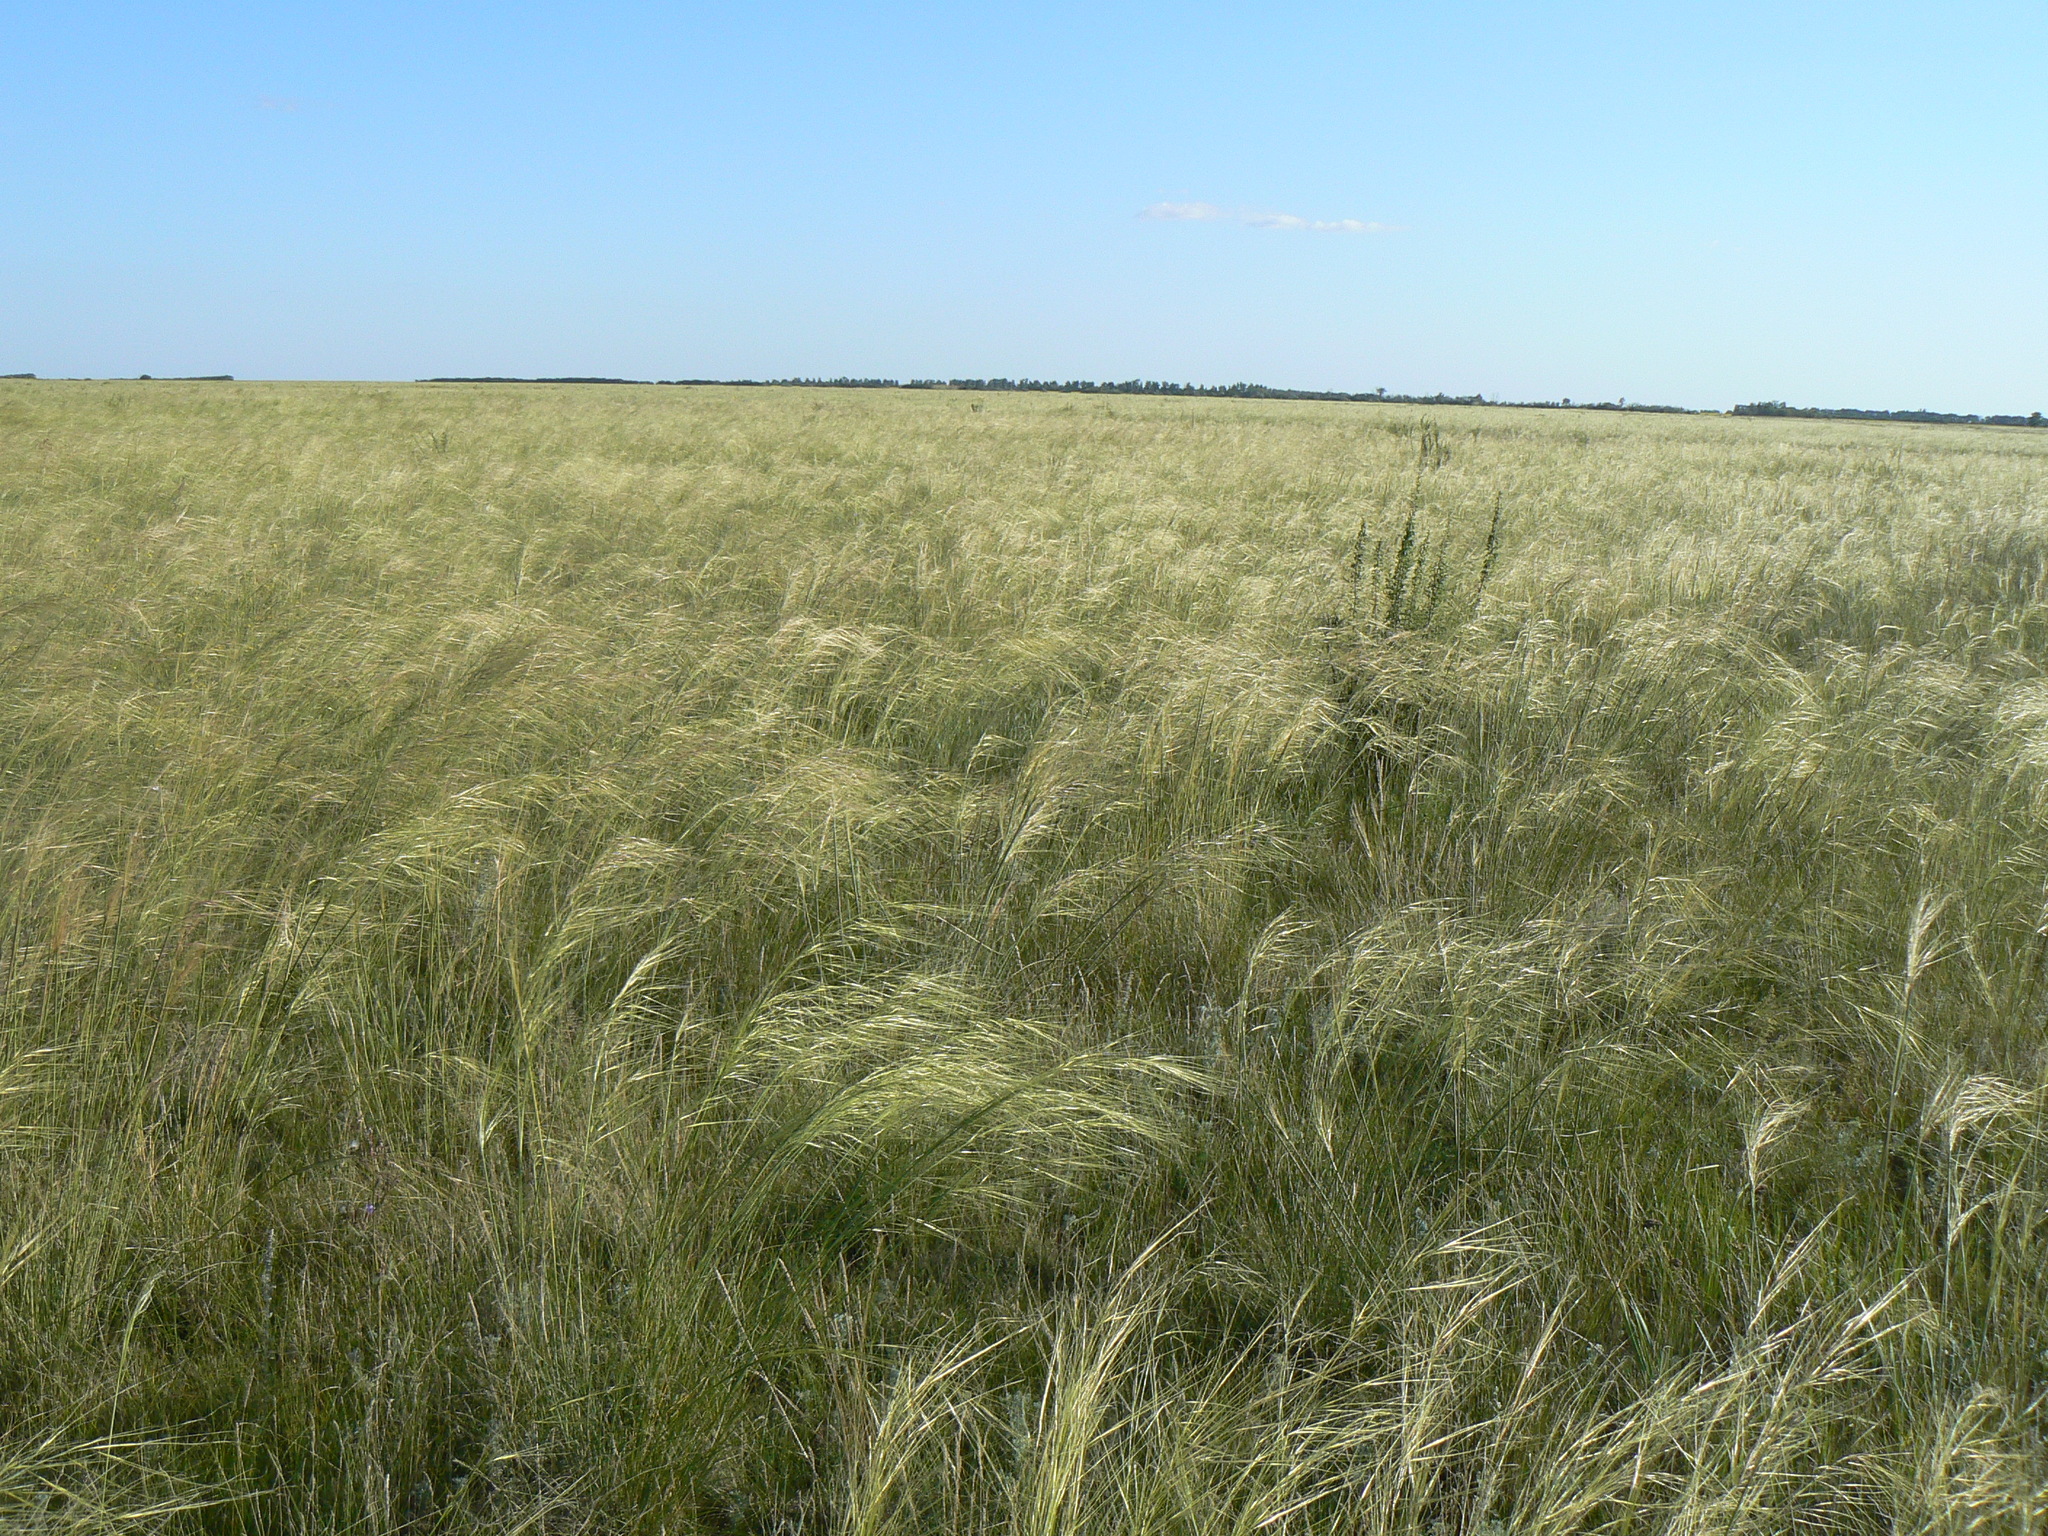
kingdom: Plantae
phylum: Tracheophyta
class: Liliopsida
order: Poales
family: Poaceae
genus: Stipa
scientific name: Stipa capillata
